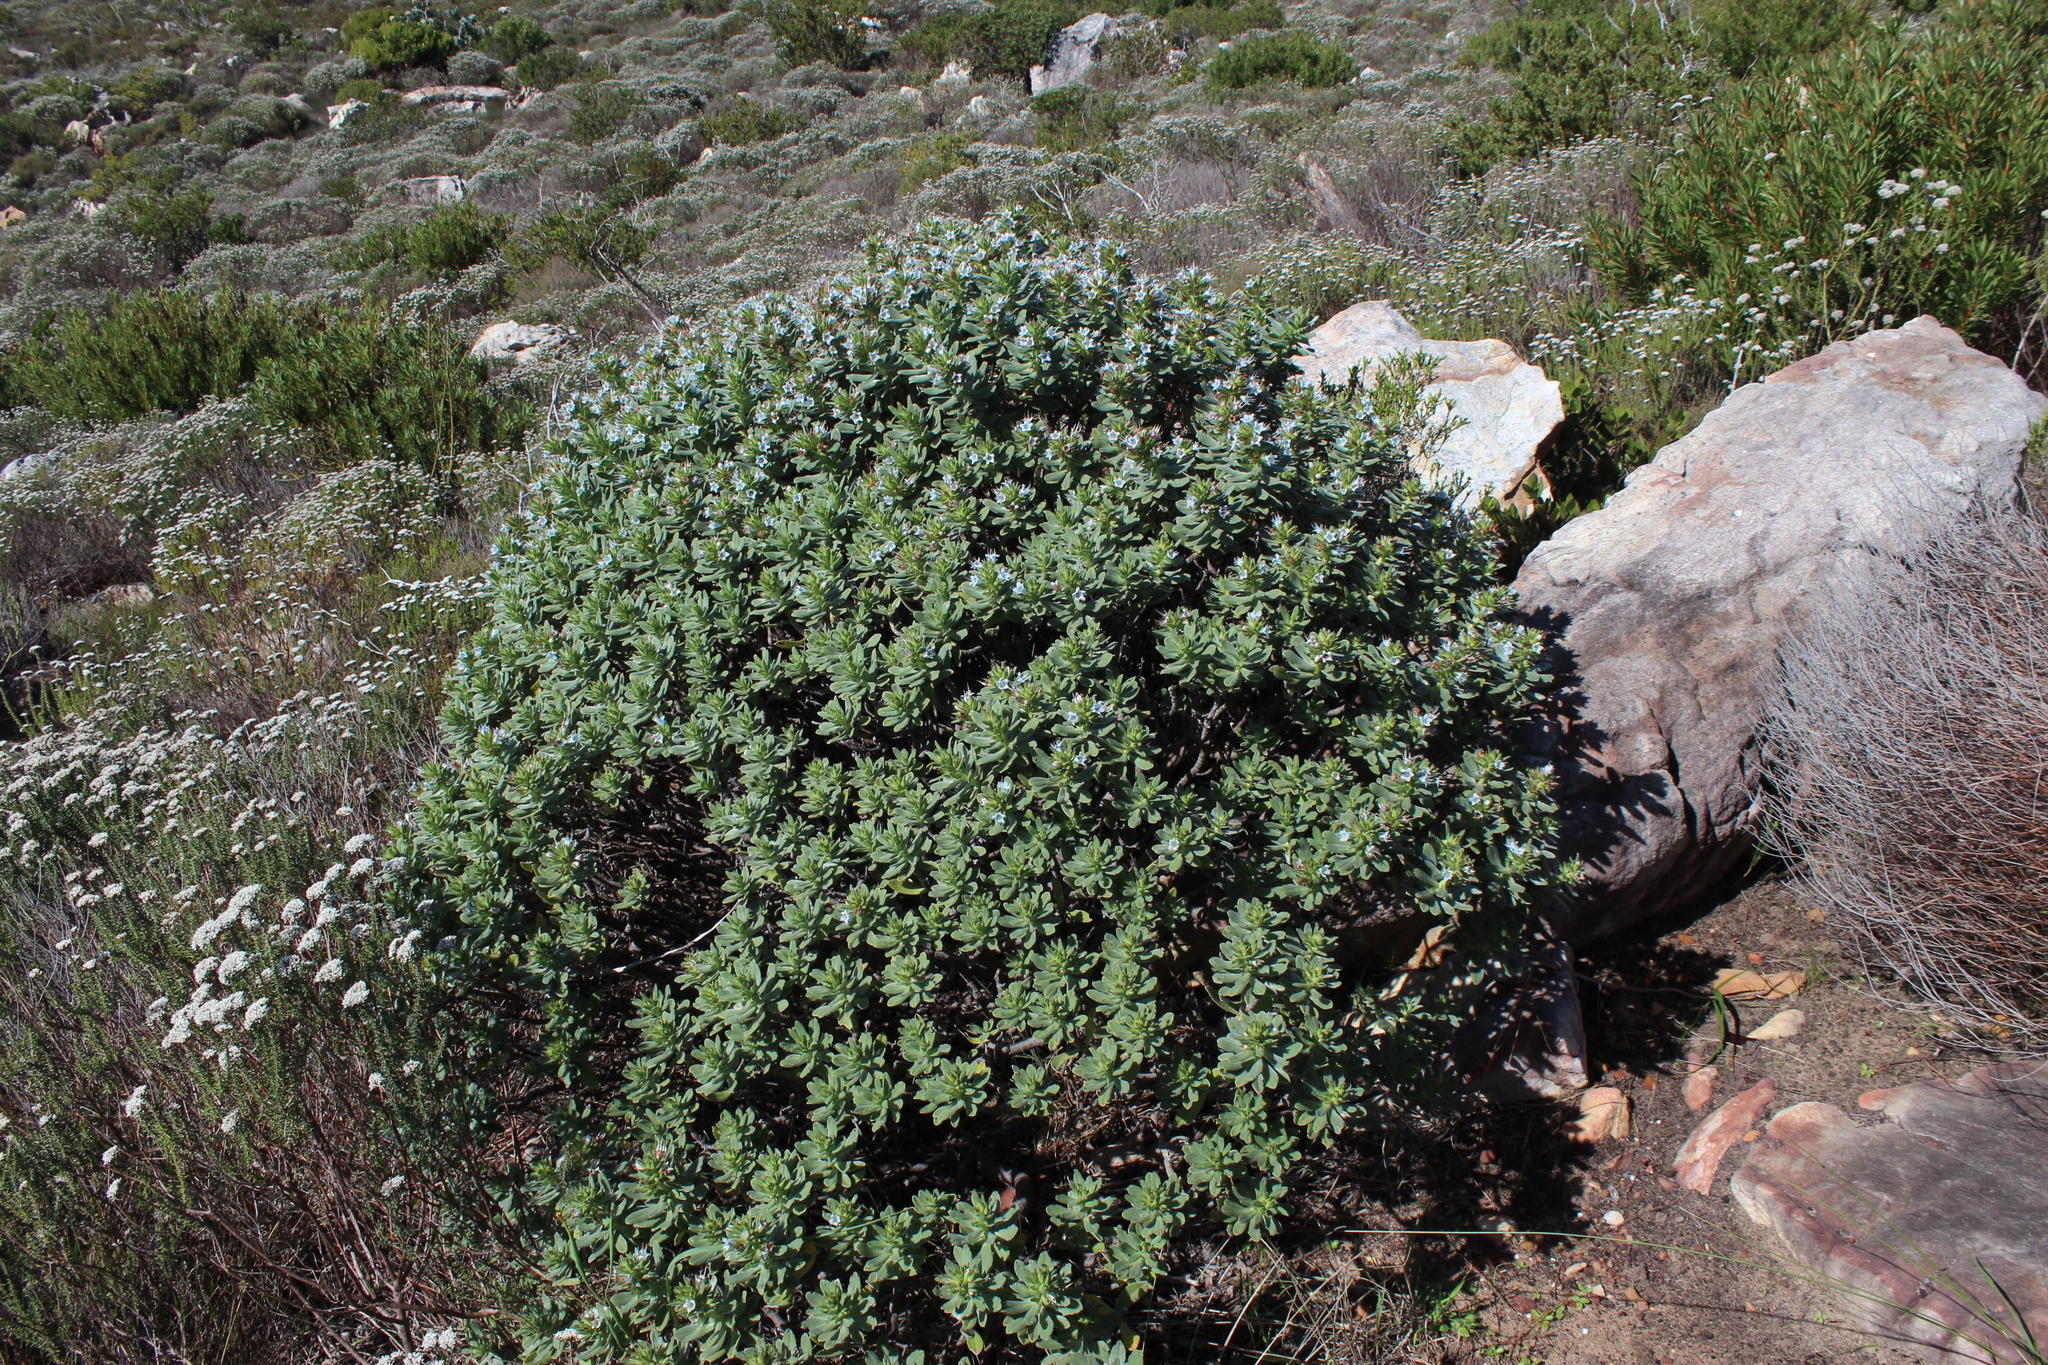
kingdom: Plantae
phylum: Tracheophyta
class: Magnoliopsida
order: Boraginales
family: Boraginaceae
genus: Lobostemon
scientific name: Lobostemon montanus
